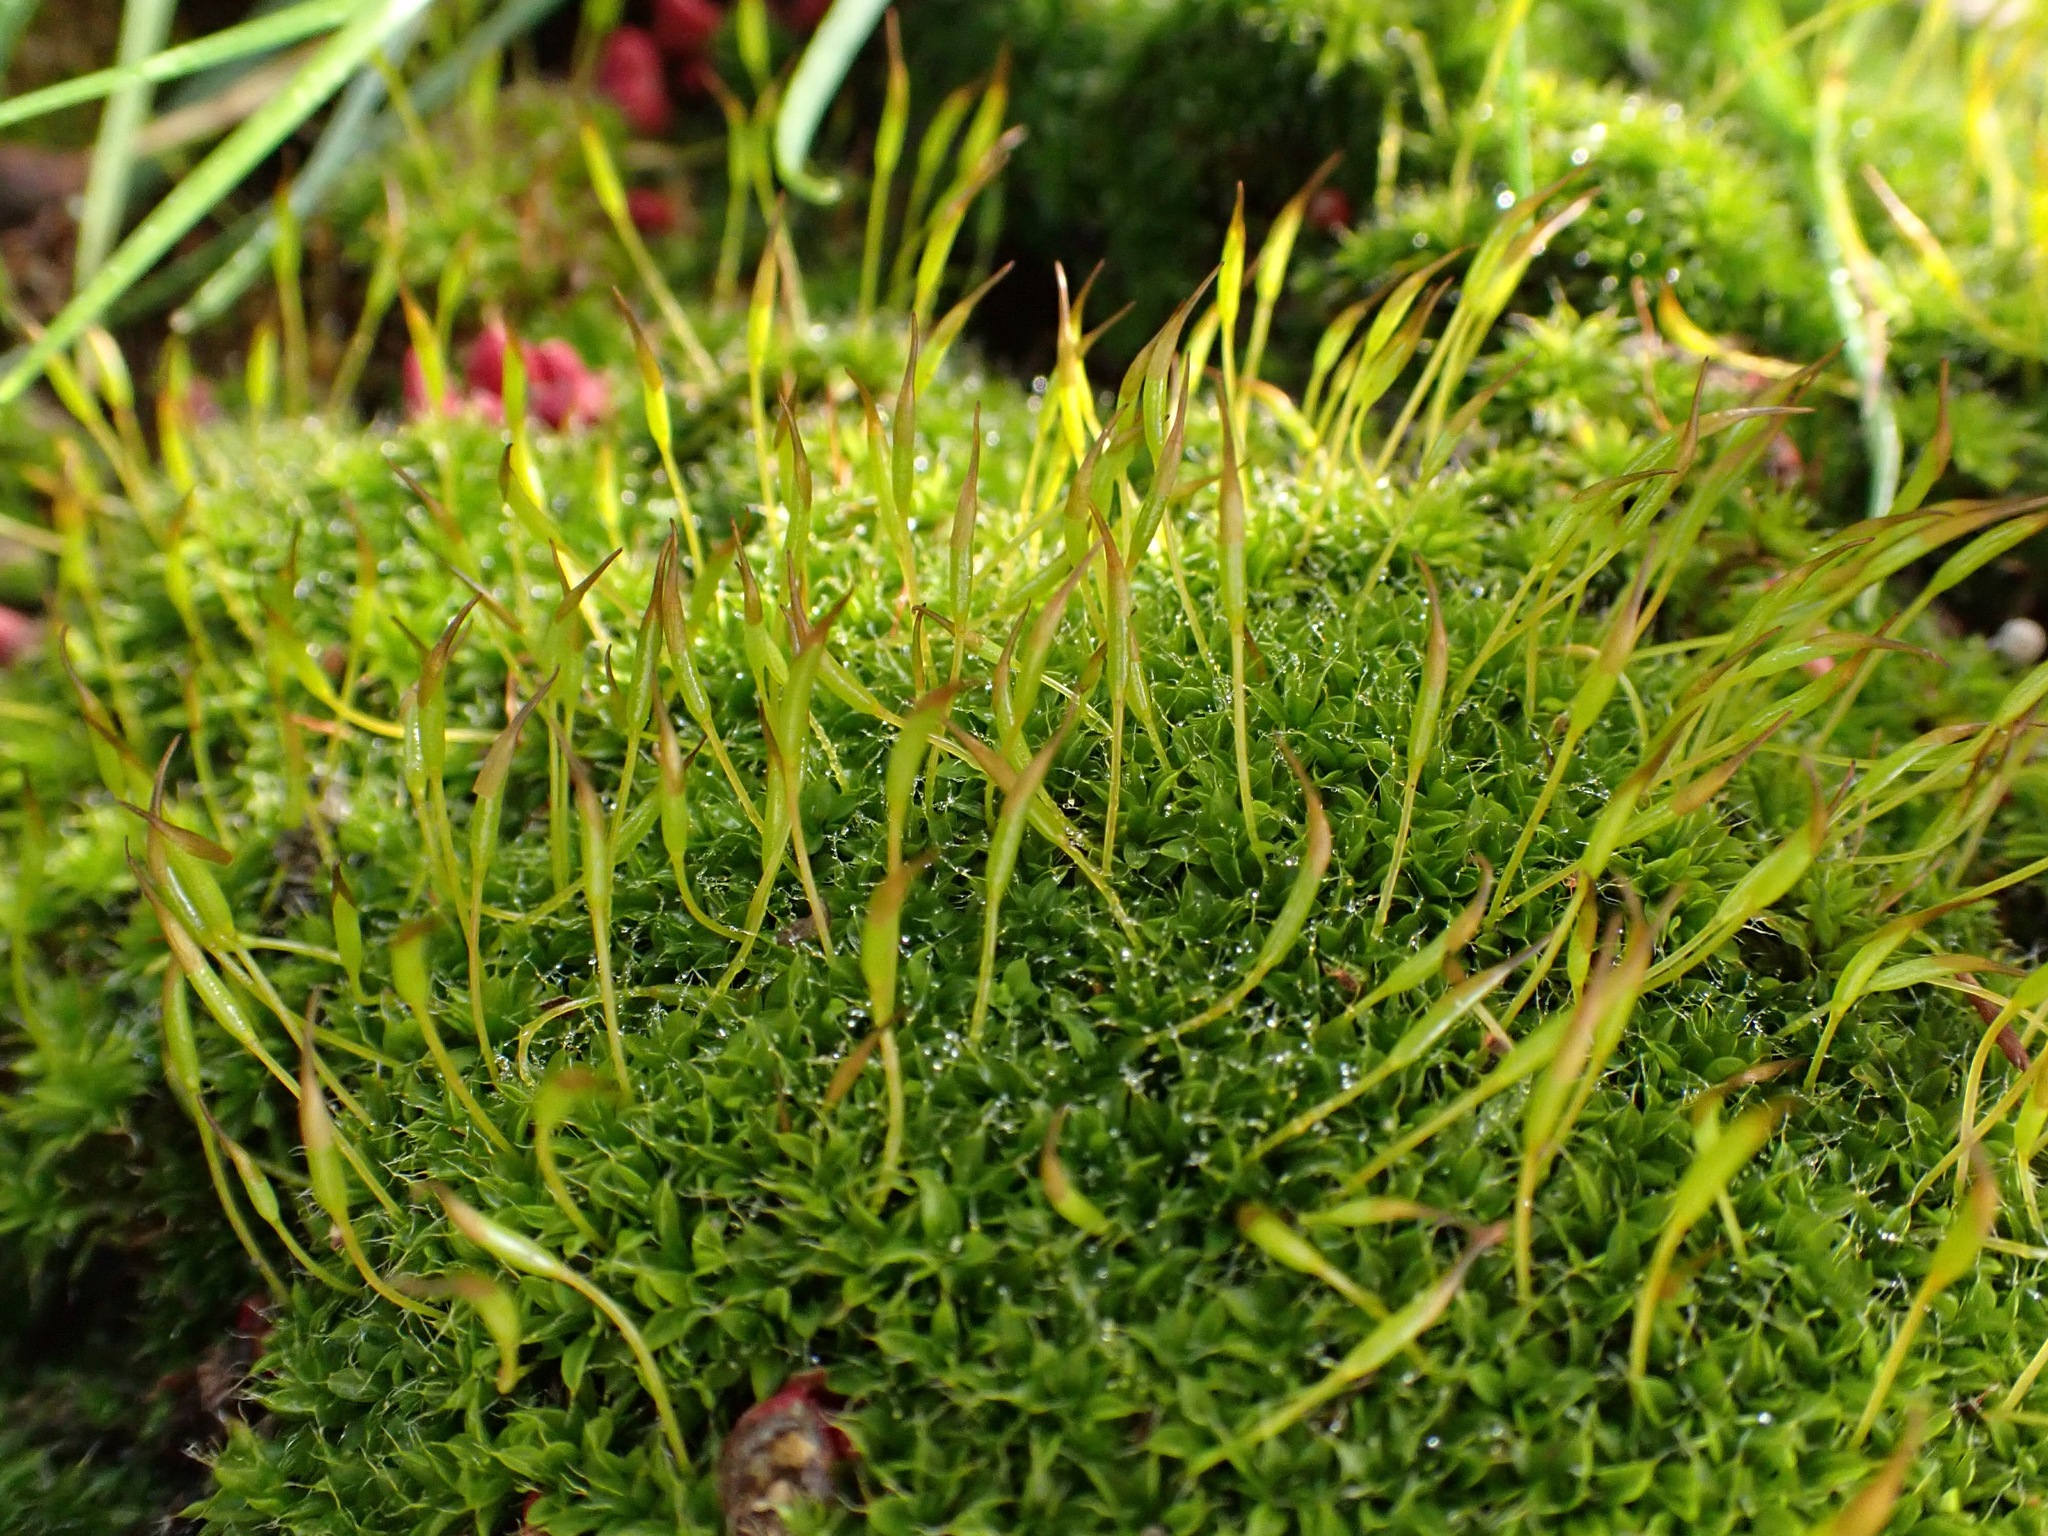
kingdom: Plantae
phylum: Bryophyta
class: Bryopsida
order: Pottiales
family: Pottiaceae
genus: Tortula
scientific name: Tortula muralis
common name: Wall screw-moss
